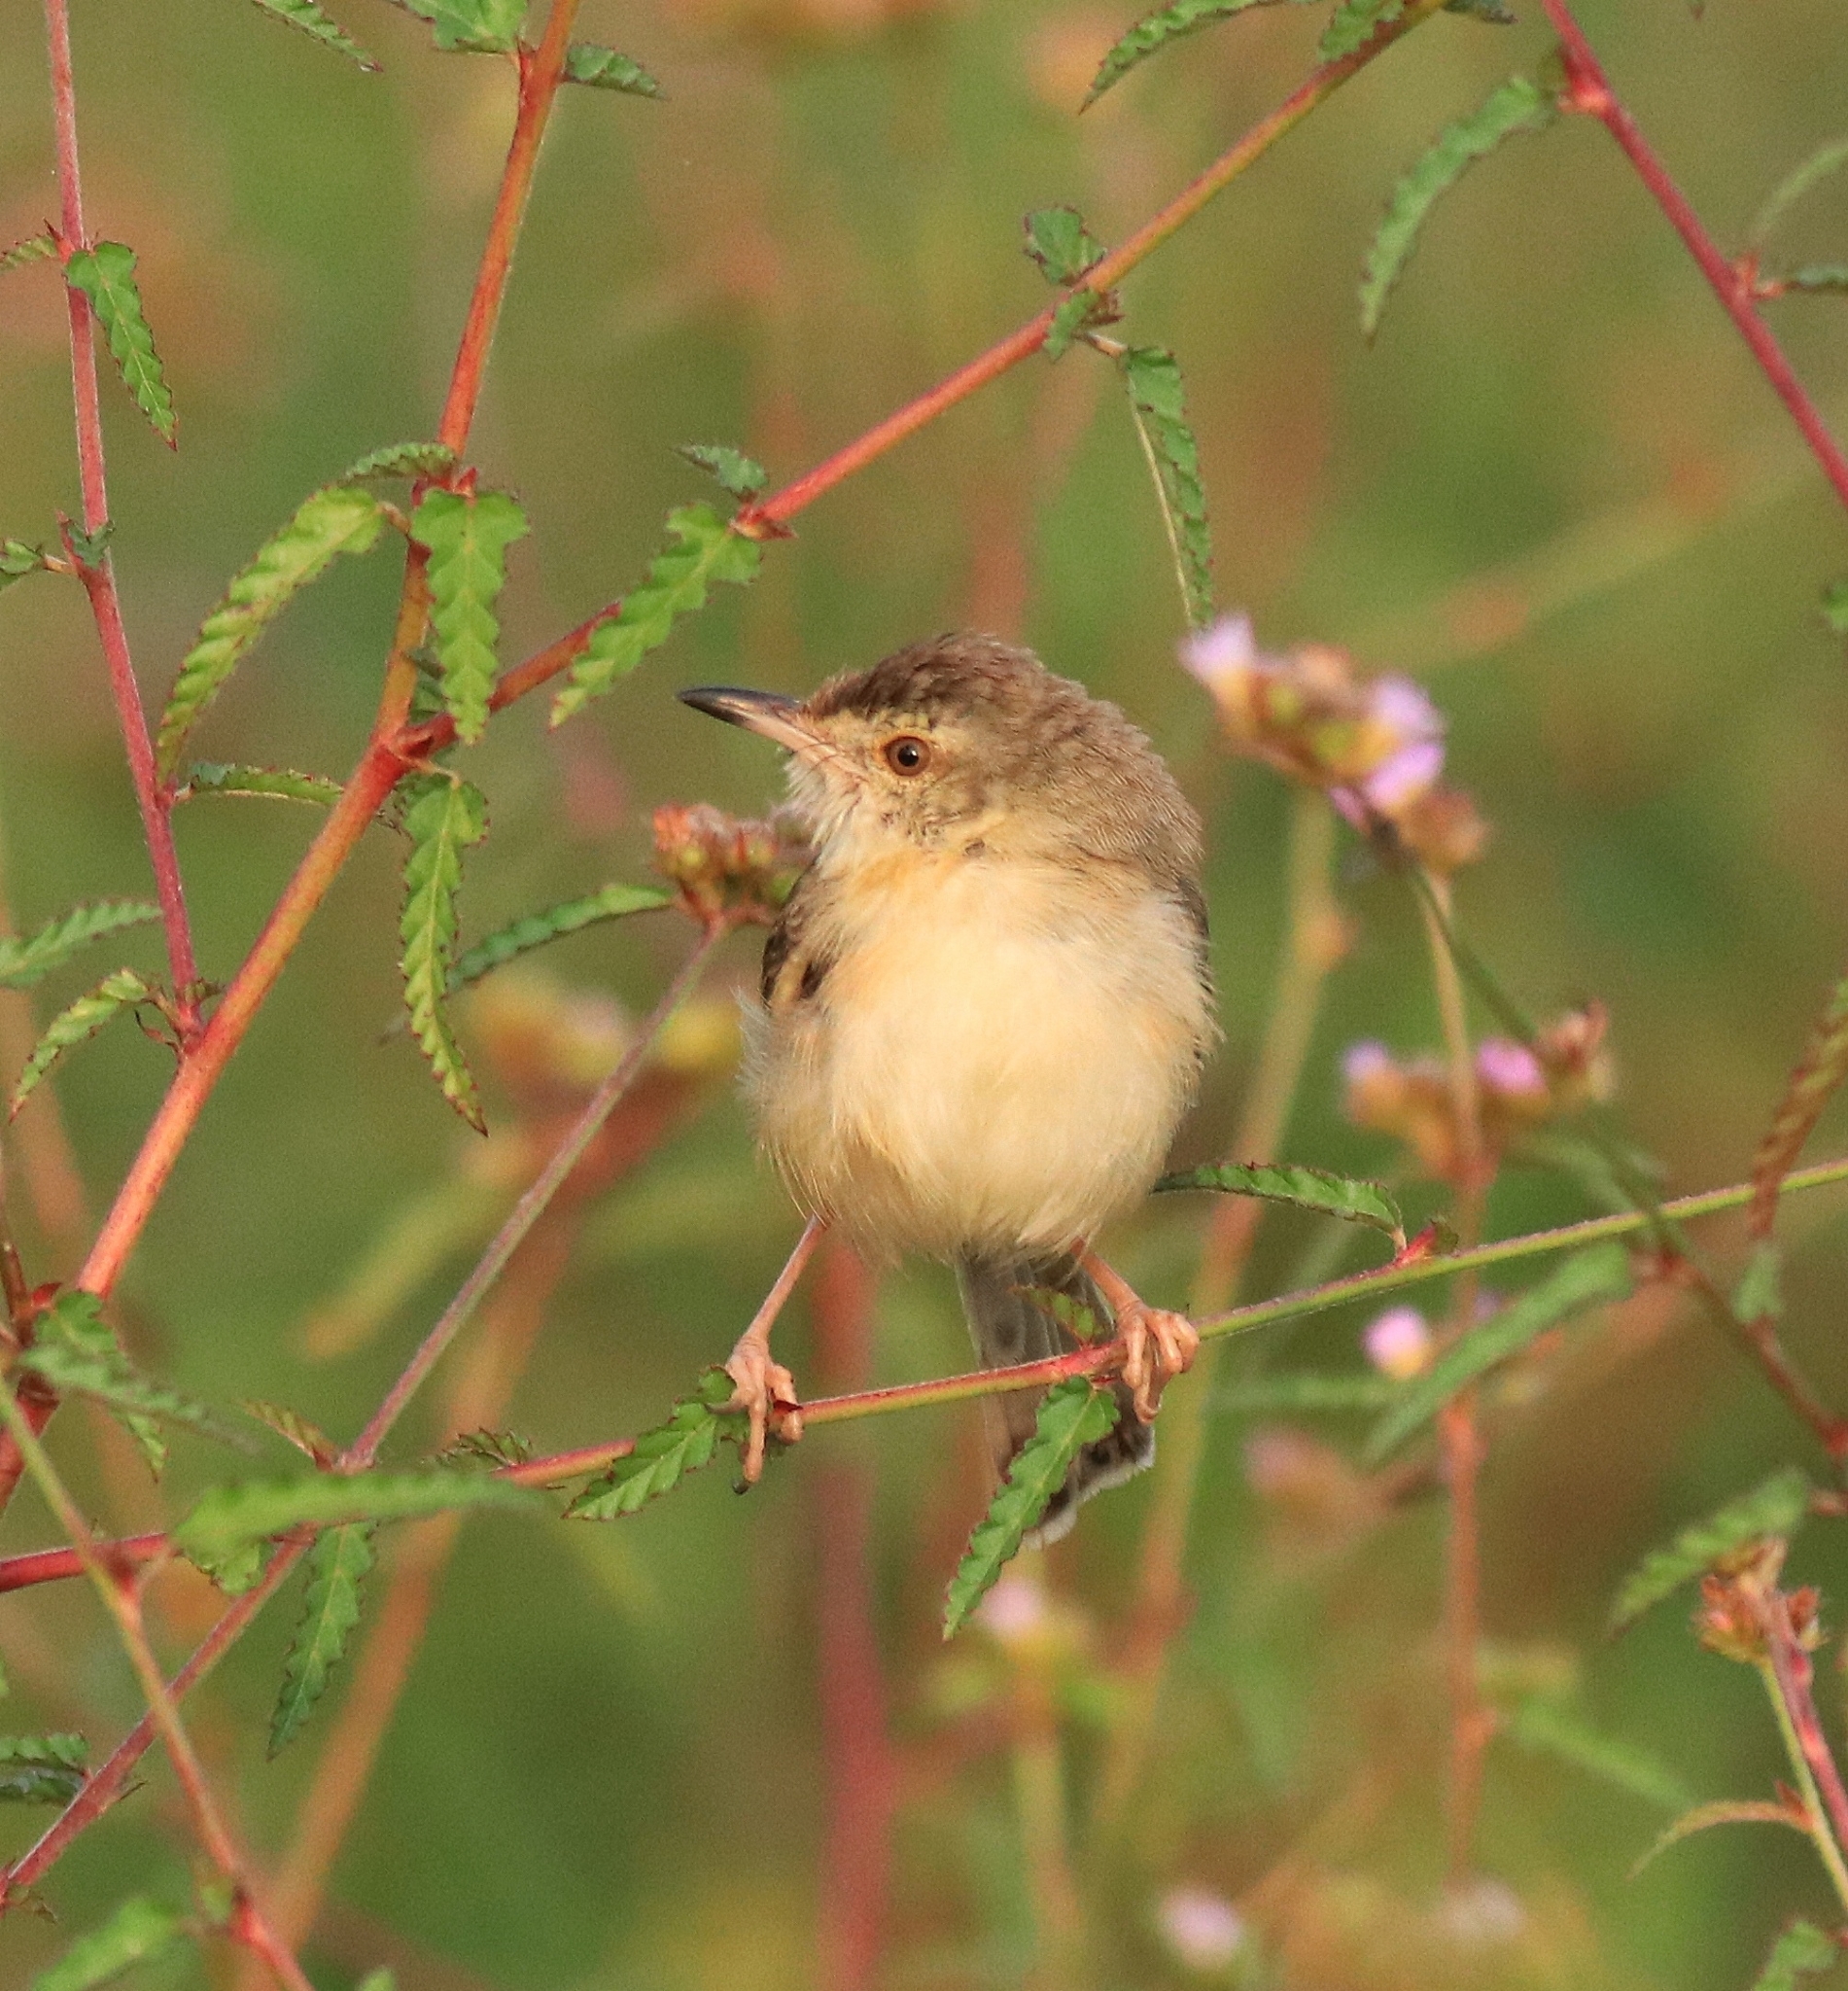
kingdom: Animalia
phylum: Chordata
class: Aves
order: Passeriformes
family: Cisticolidae
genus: Prinia
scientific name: Prinia inornata
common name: Plain prinia
